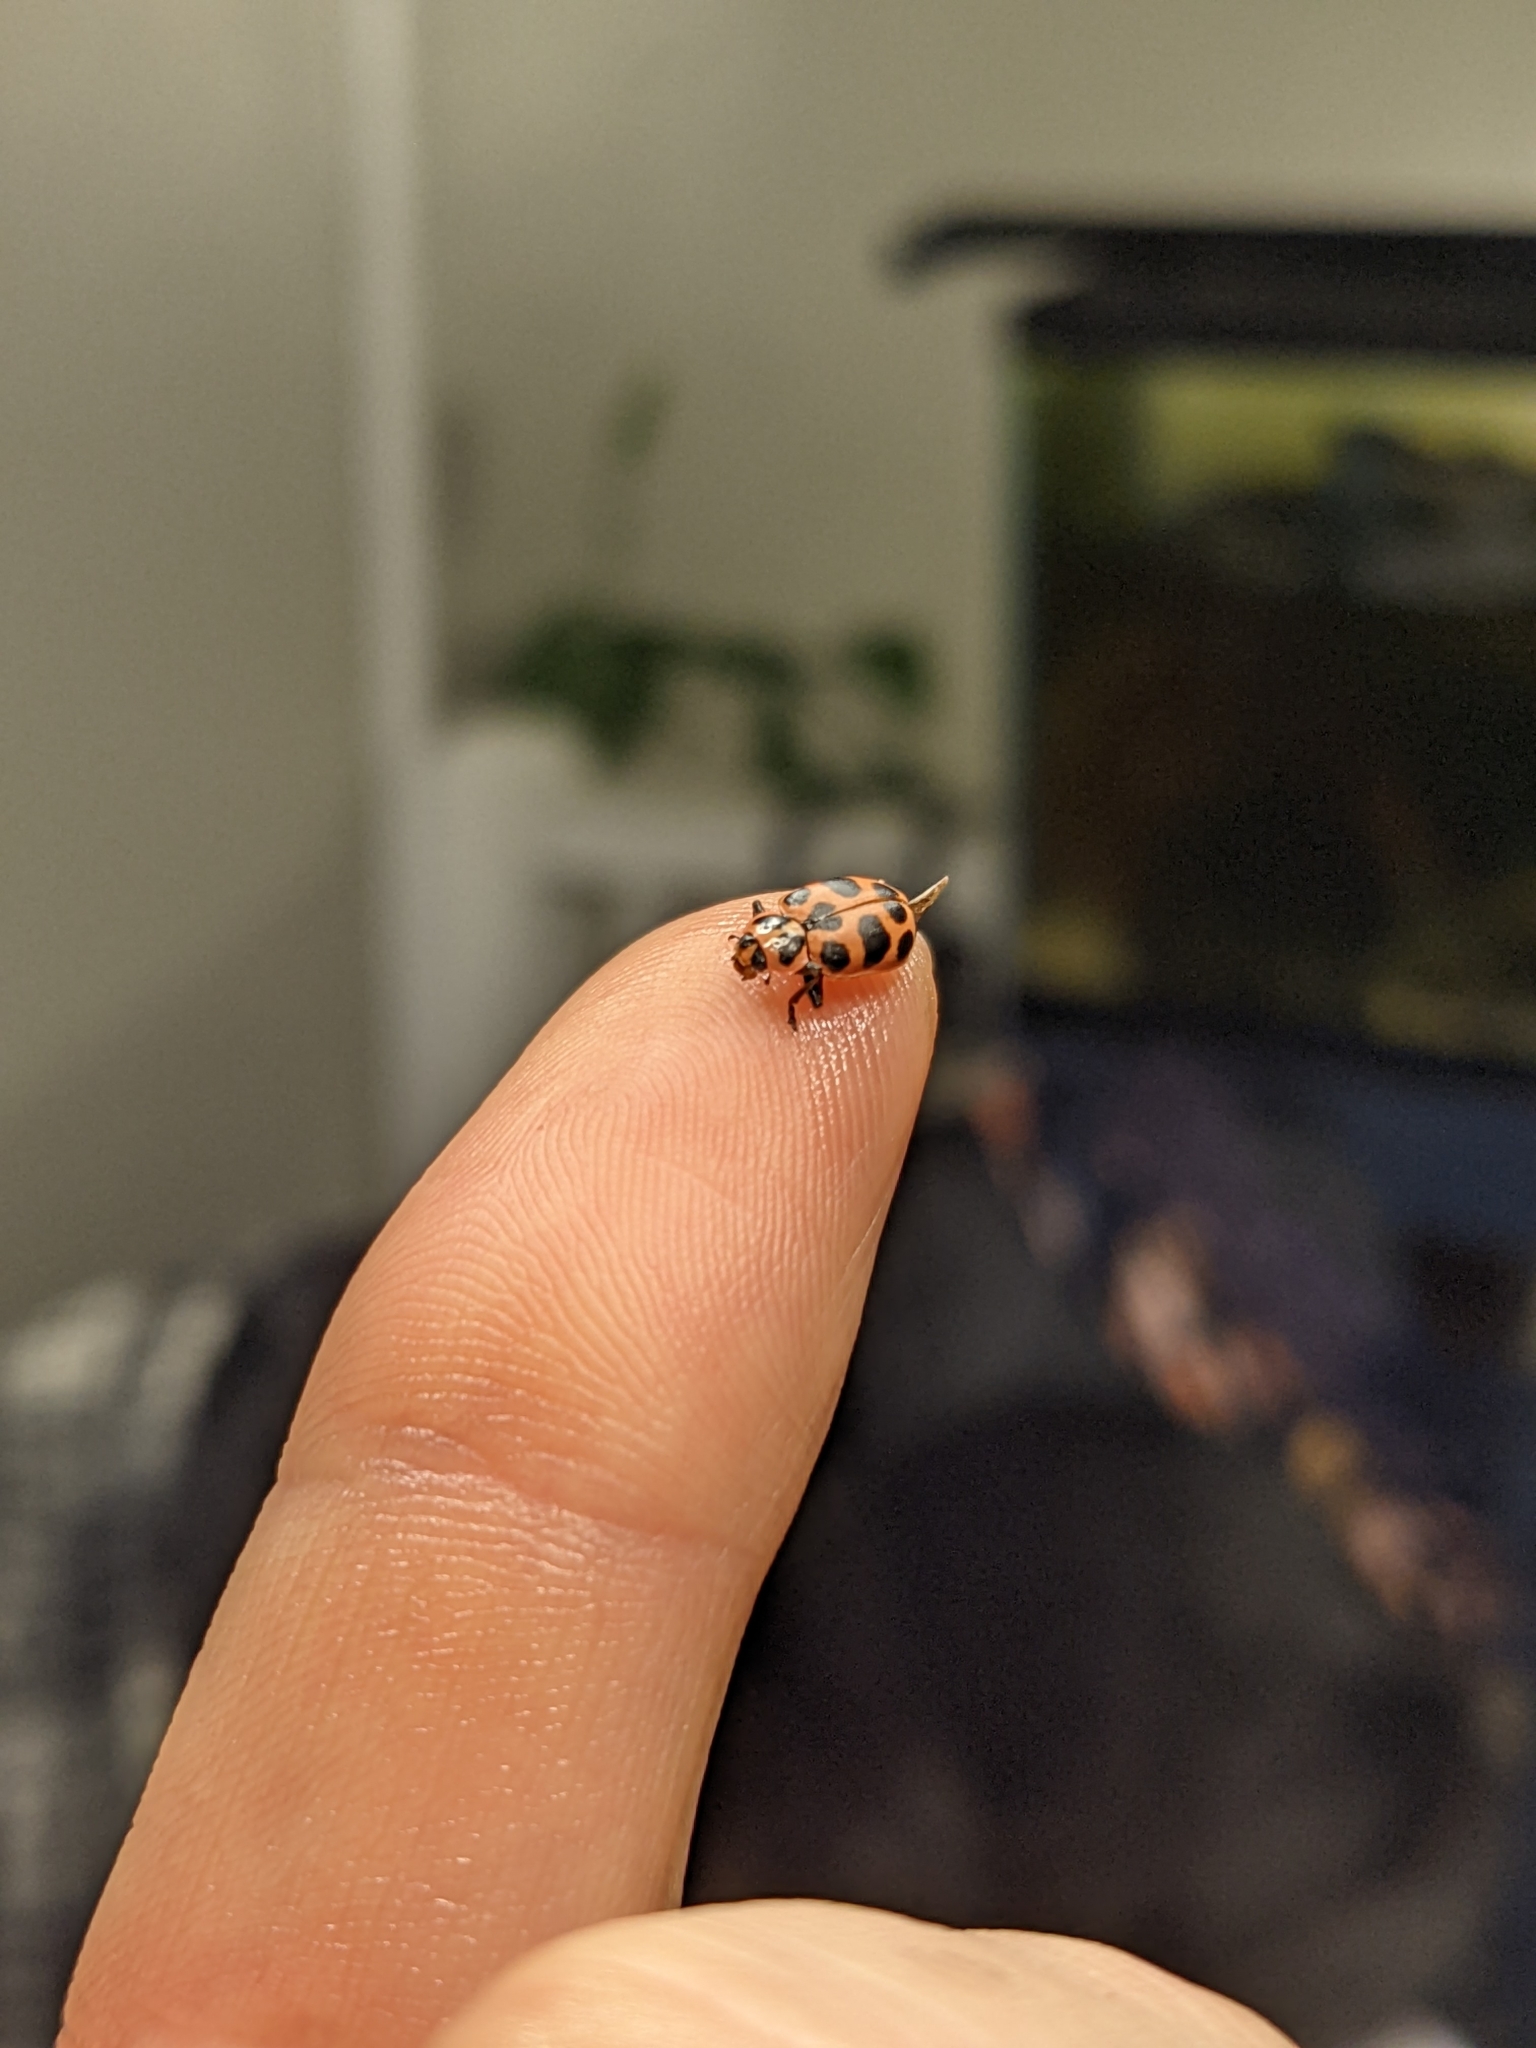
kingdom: Animalia
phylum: Arthropoda
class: Insecta
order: Coleoptera
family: Coccinellidae
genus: Coleomegilla
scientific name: Coleomegilla maculata
